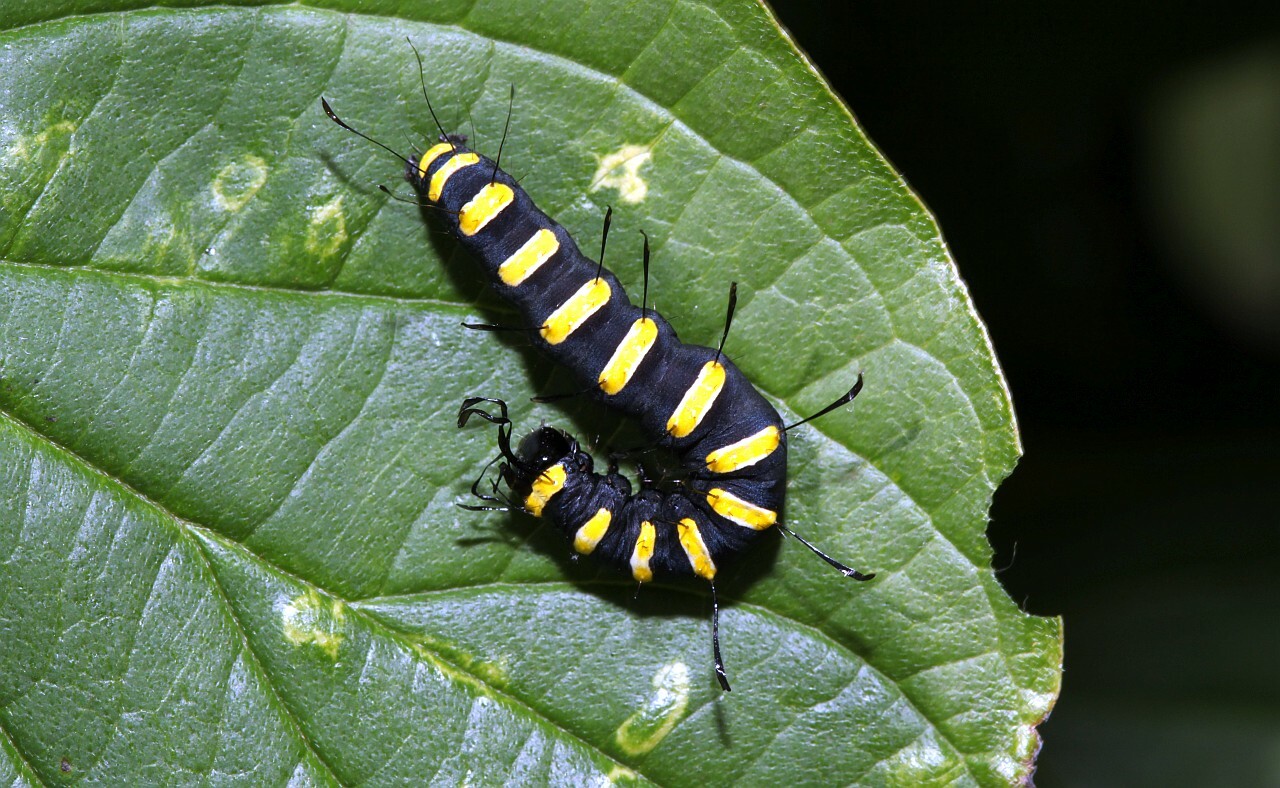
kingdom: Animalia
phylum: Arthropoda
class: Insecta
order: Lepidoptera
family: Noctuidae
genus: Acronicta
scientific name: Acronicta alni
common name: Alder moth
